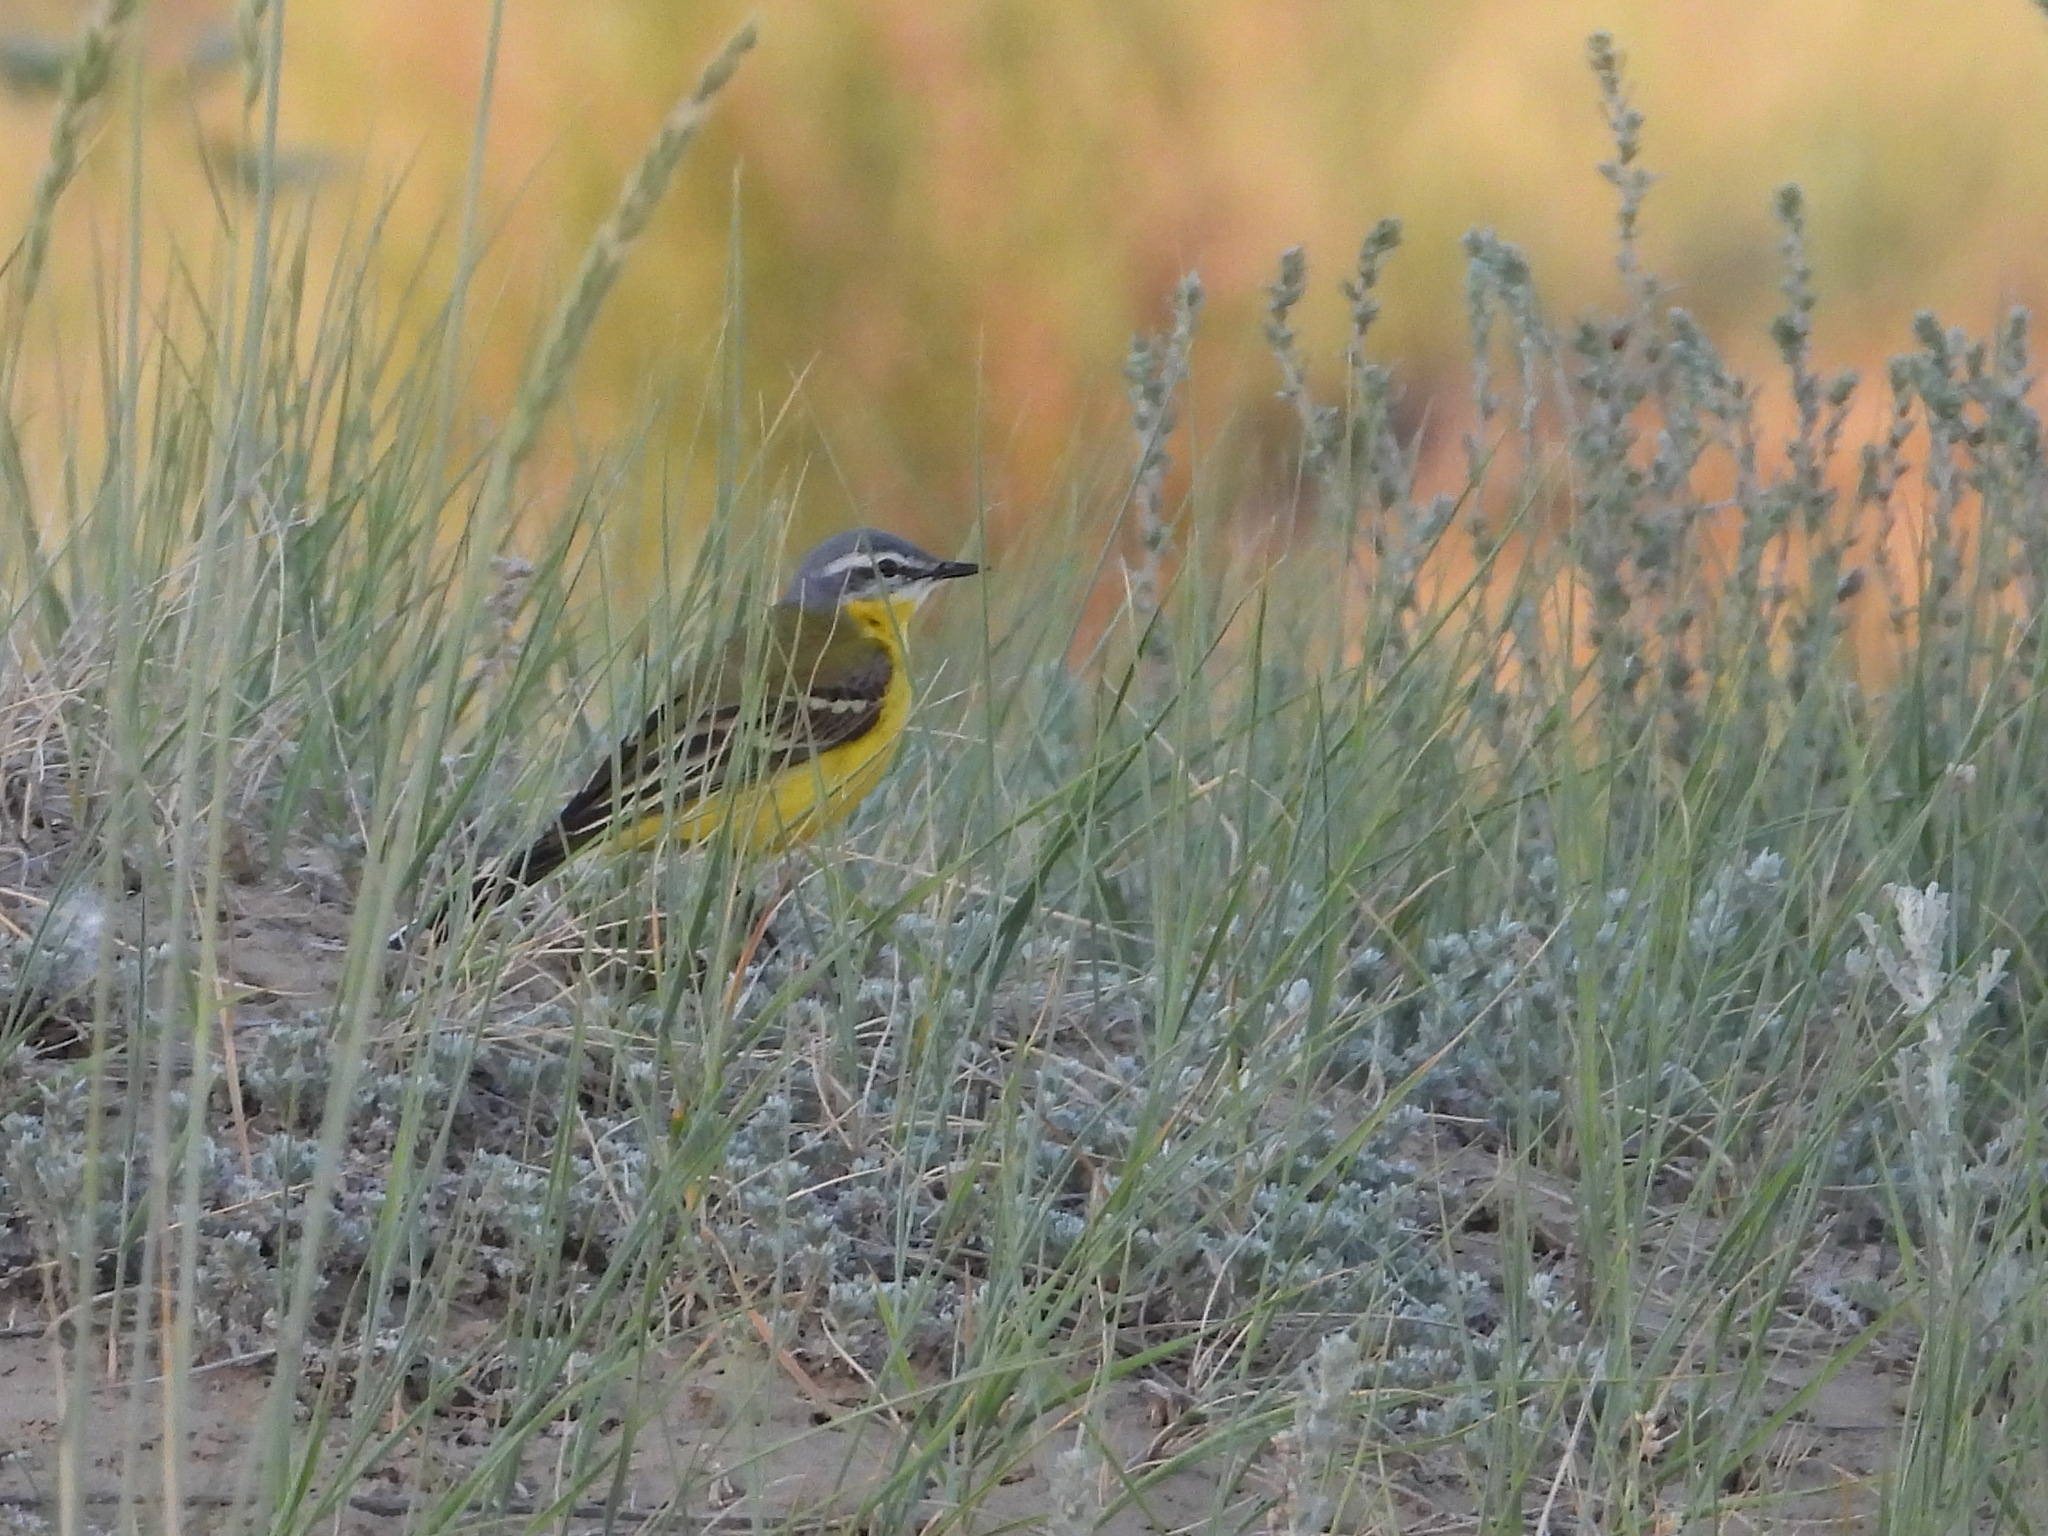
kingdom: Animalia
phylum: Chordata
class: Aves
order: Passeriformes
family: Motacillidae
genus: Motacilla
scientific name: Motacilla flava
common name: Western yellow wagtail
